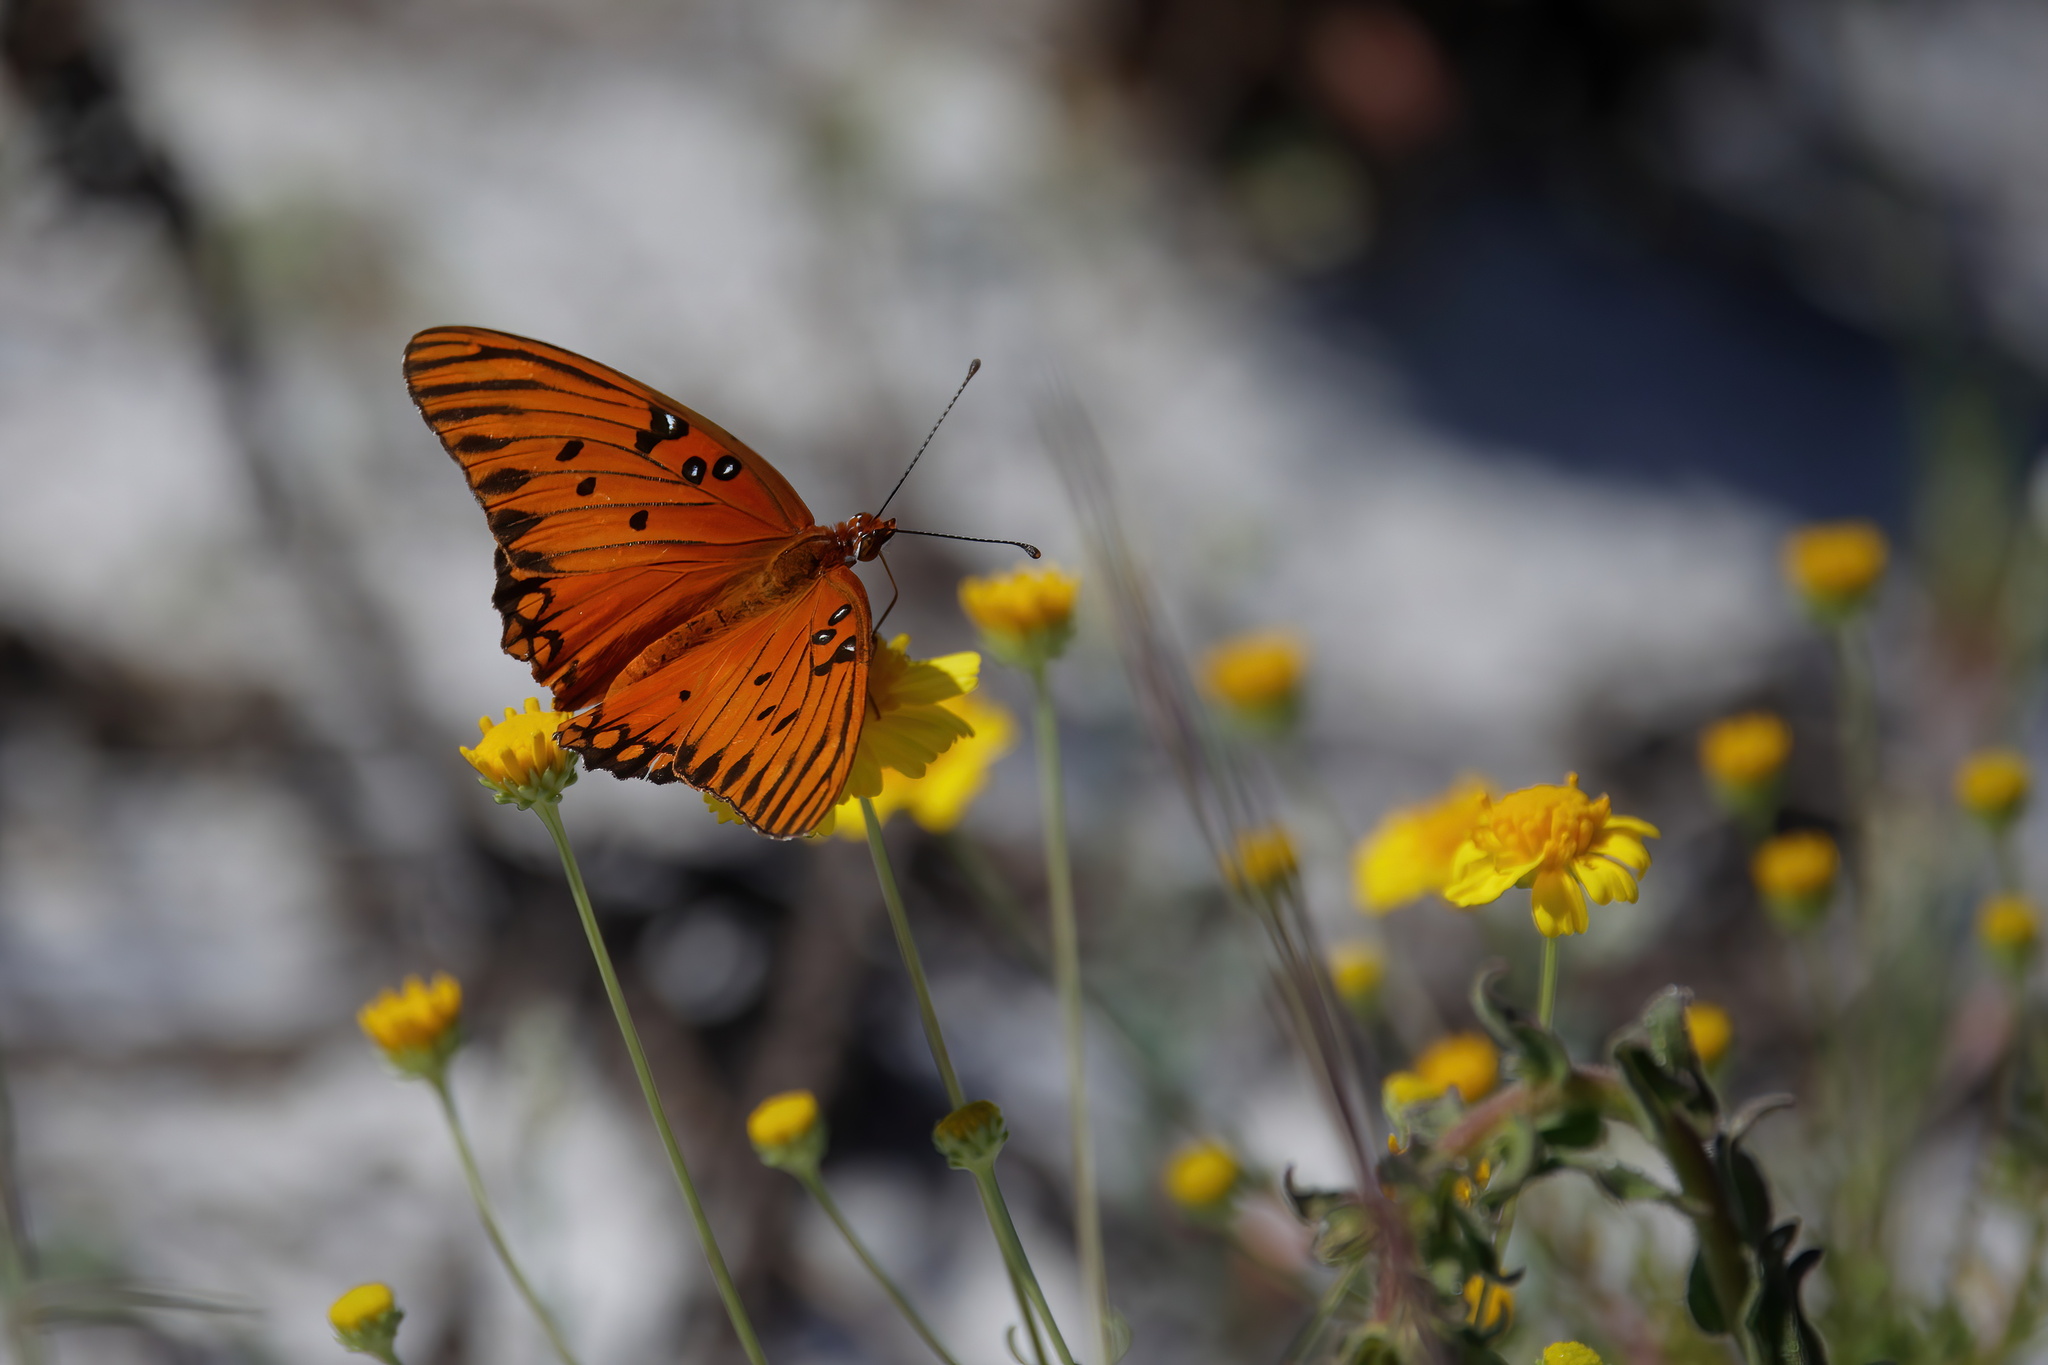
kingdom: Animalia
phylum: Arthropoda
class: Insecta
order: Lepidoptera
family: Nymphalidae
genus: Dione
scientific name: Dione vanillae
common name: Gulf fritillary
